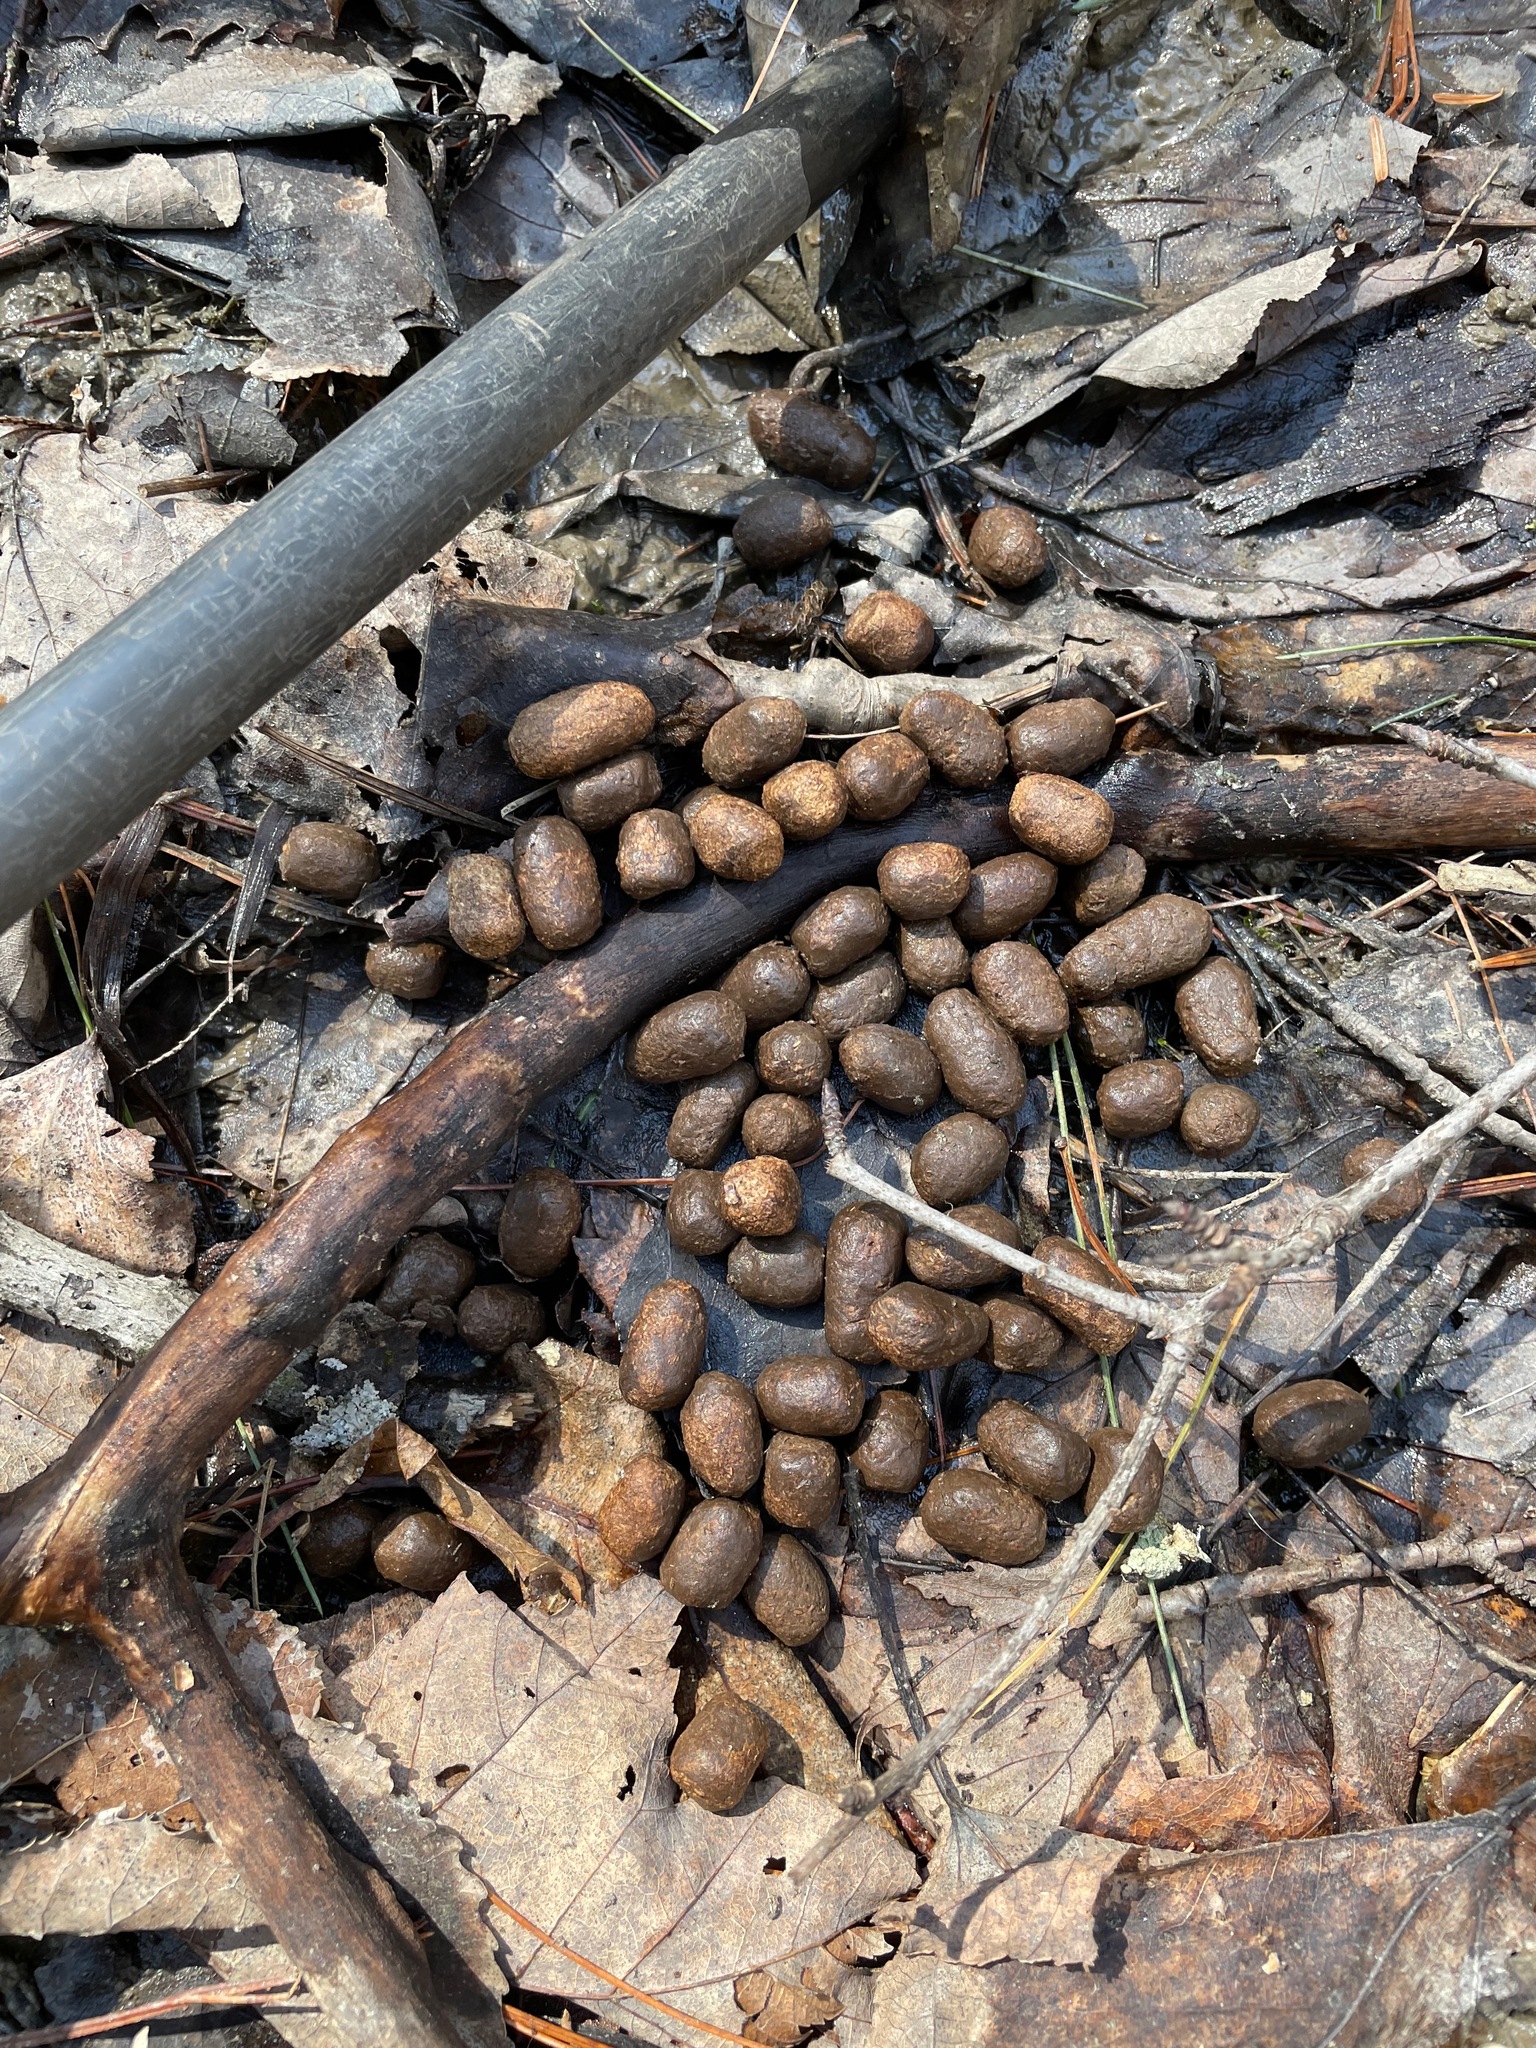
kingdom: Animalia
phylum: Chordata
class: Mammalia
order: Artiodactyla
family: Cervidae
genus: Odocoileus
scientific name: Odocoileus virginianus
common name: White-tailed deer
